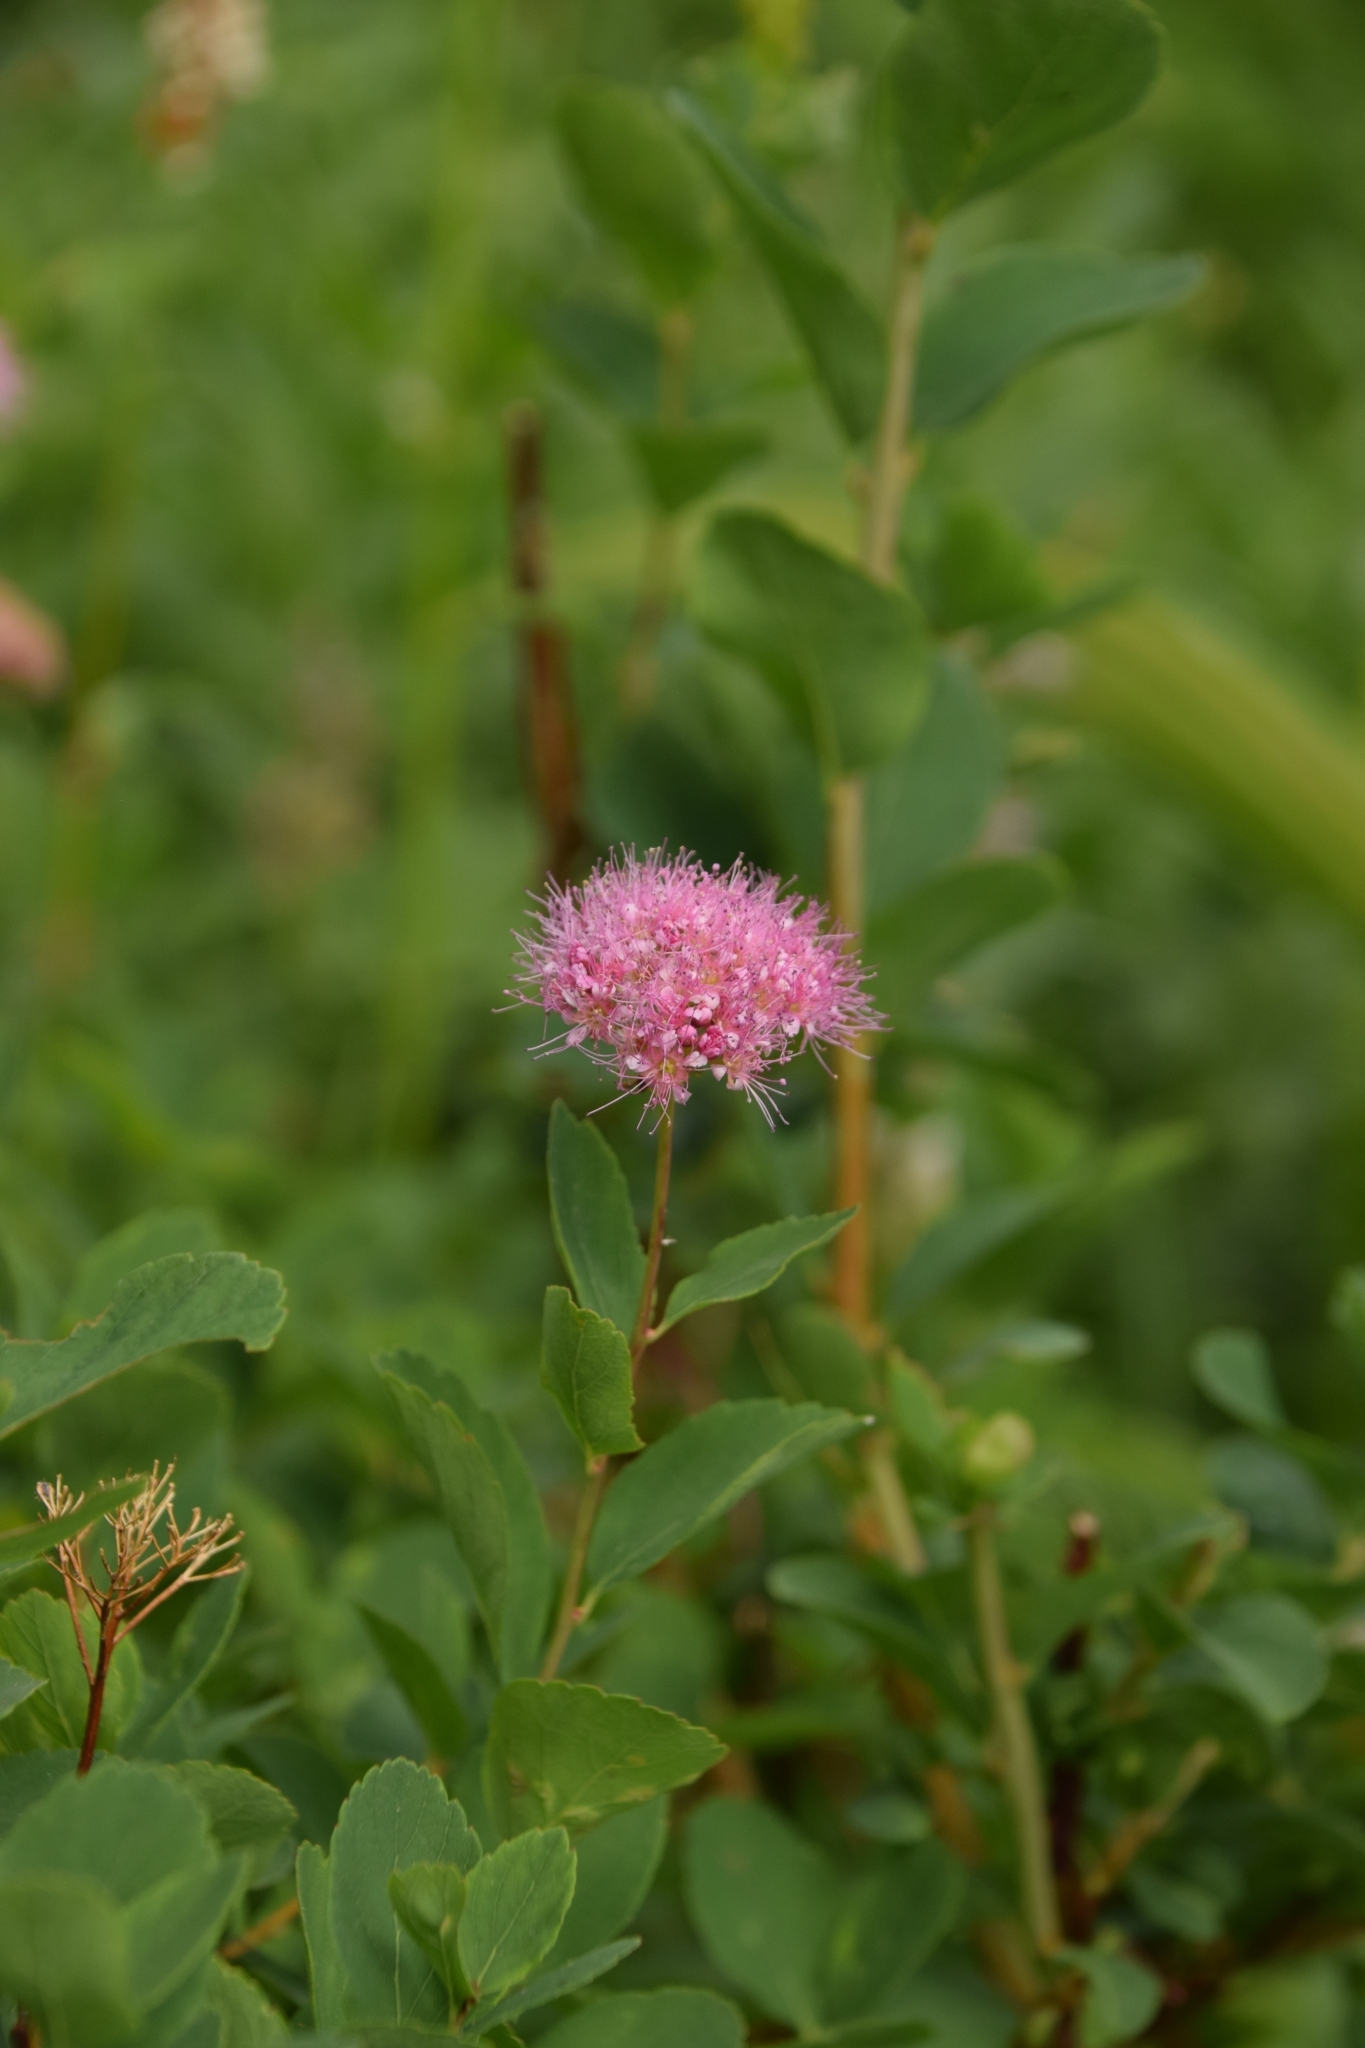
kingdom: Plantae
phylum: Tracheophyta
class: Magnoliopsida
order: Rosales
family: Rosaceae
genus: Spiraea
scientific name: Spiraea splendens
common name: Subalpine meadowsweet
